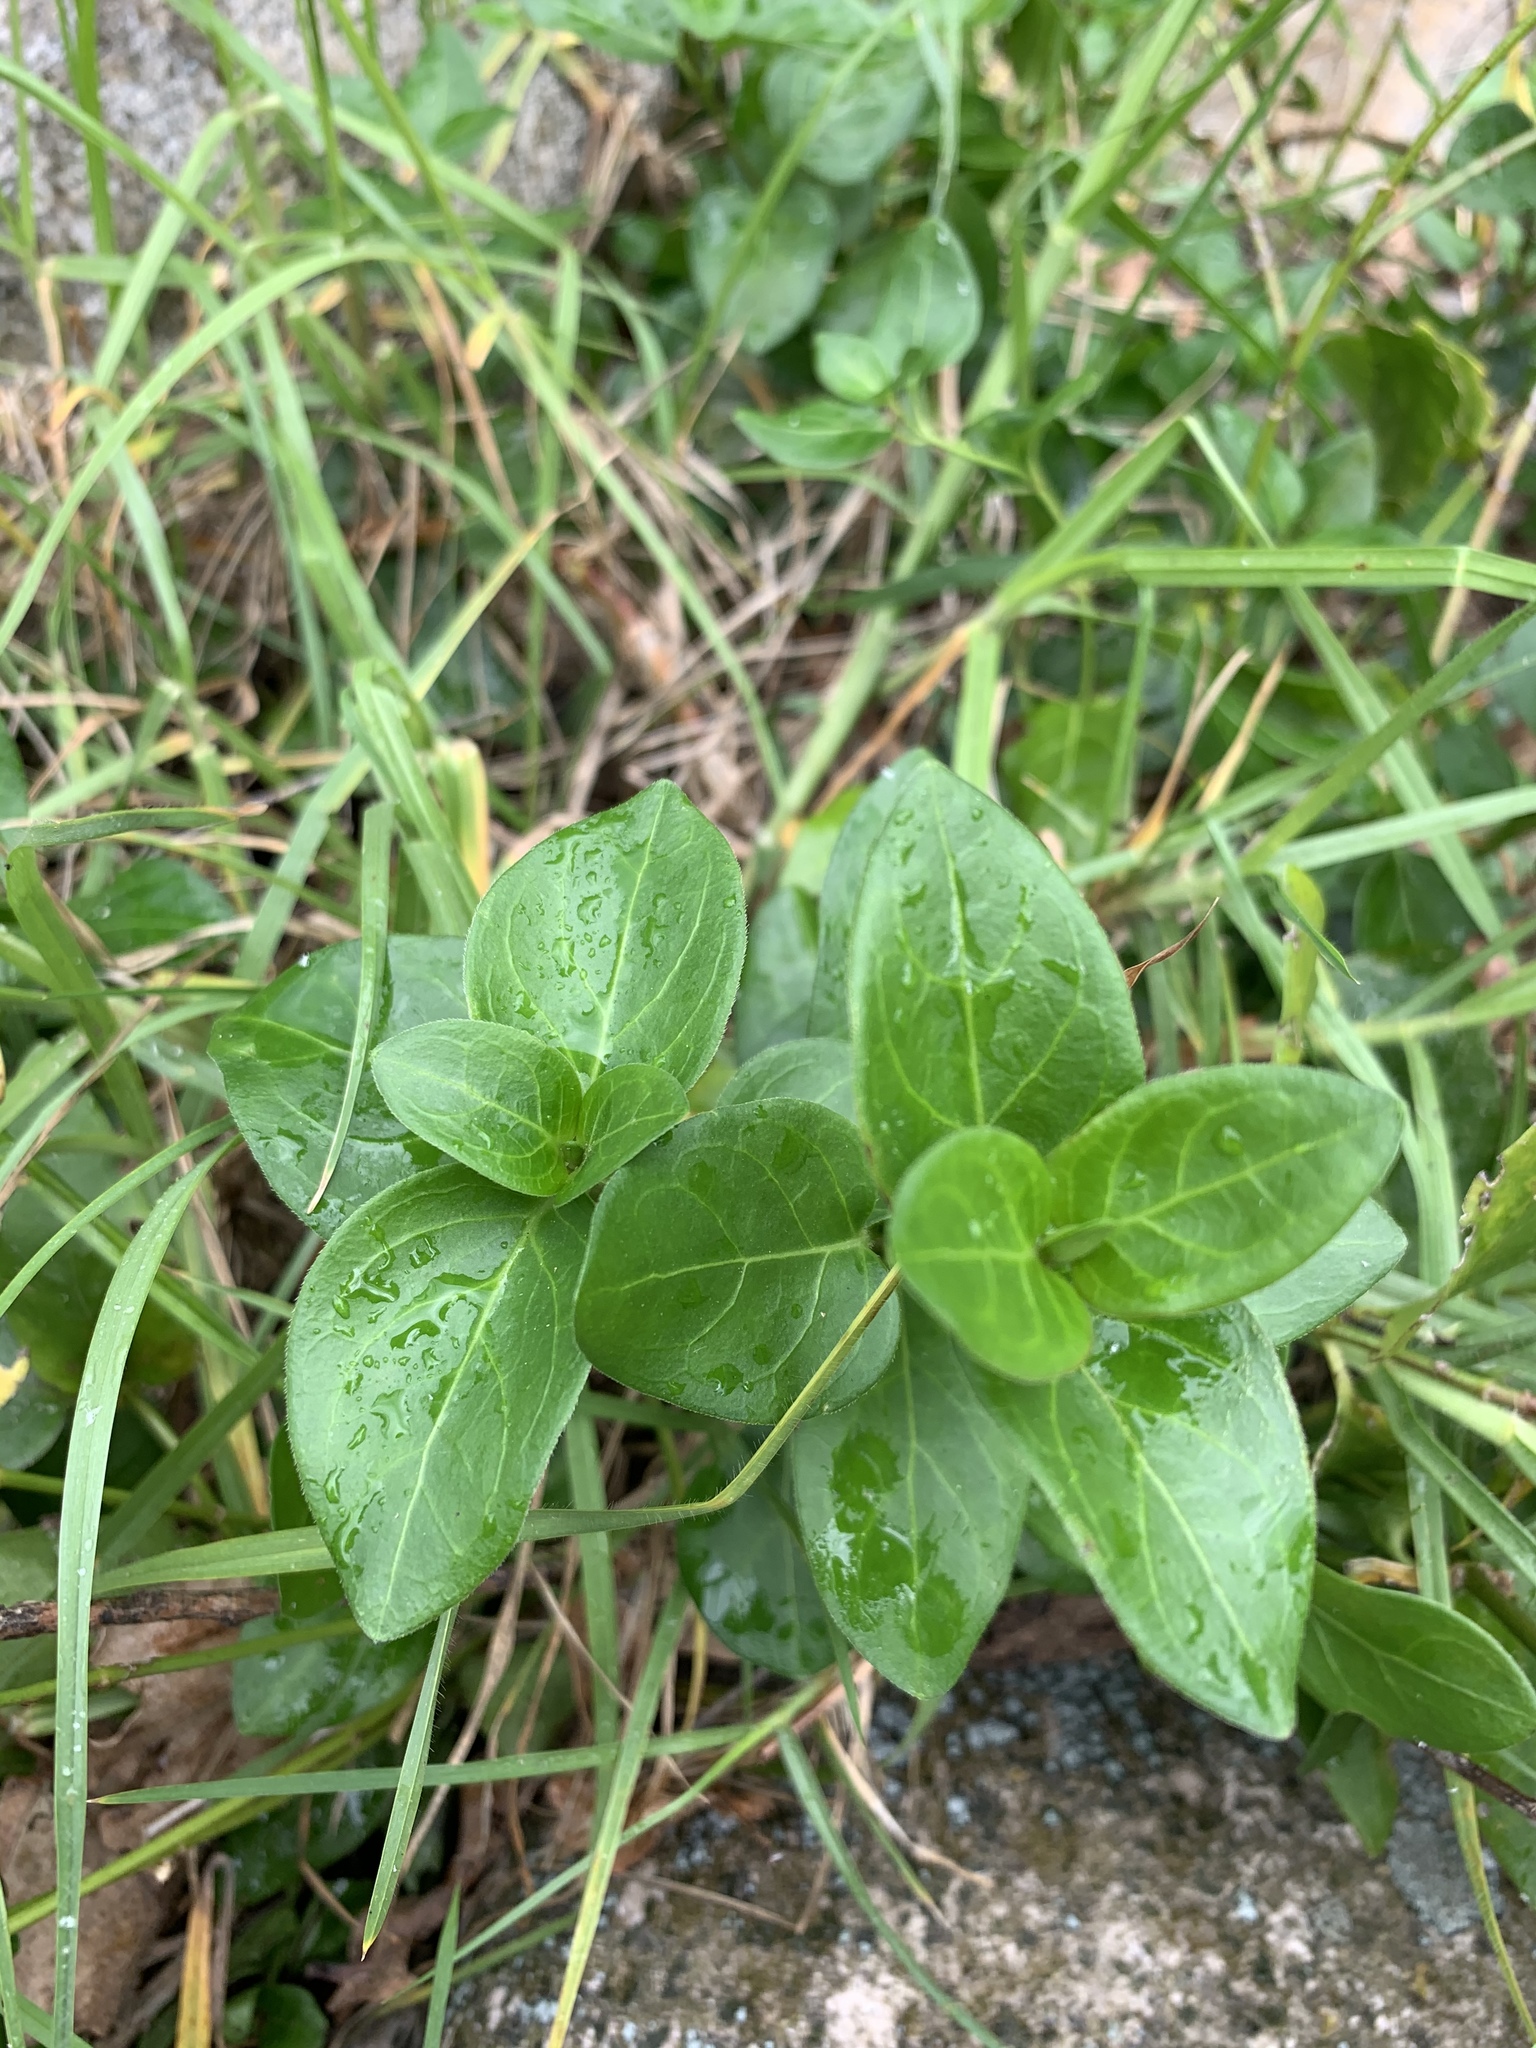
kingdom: Plantae
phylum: Tracheophyta
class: Magnoliopsida
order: Gentianales
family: Apocynaceae
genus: Vinca
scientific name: Vinca major
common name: Greater periwinkle
